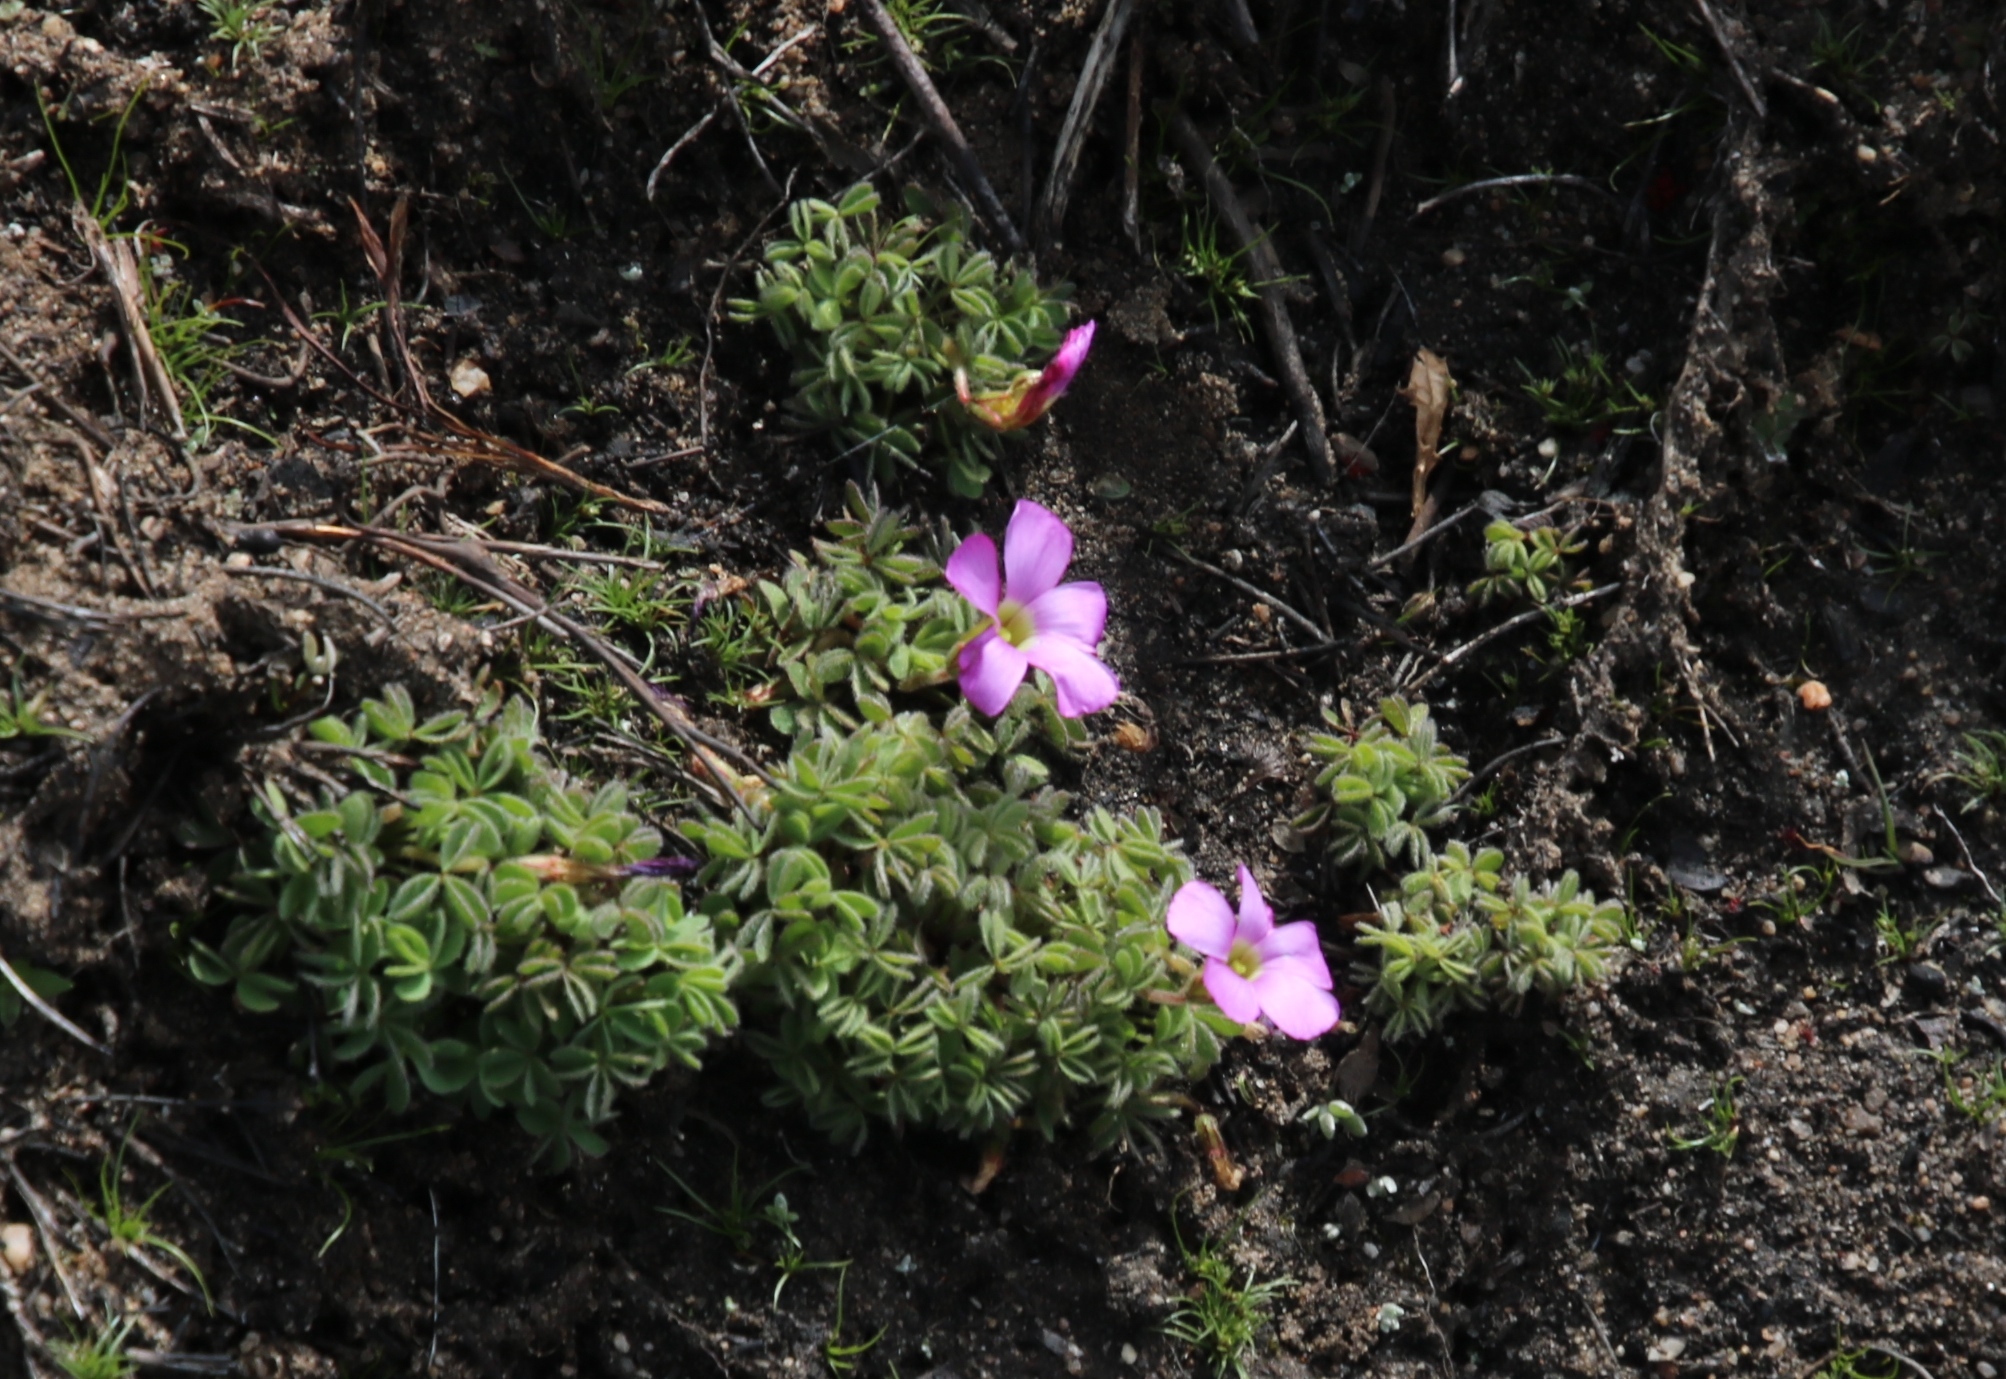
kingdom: Plantae
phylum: Tracheophyta
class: Magnoliopsida
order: Oxalidales
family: Oxalidaceae
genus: Oxalis
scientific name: Oxalis heterophylla
